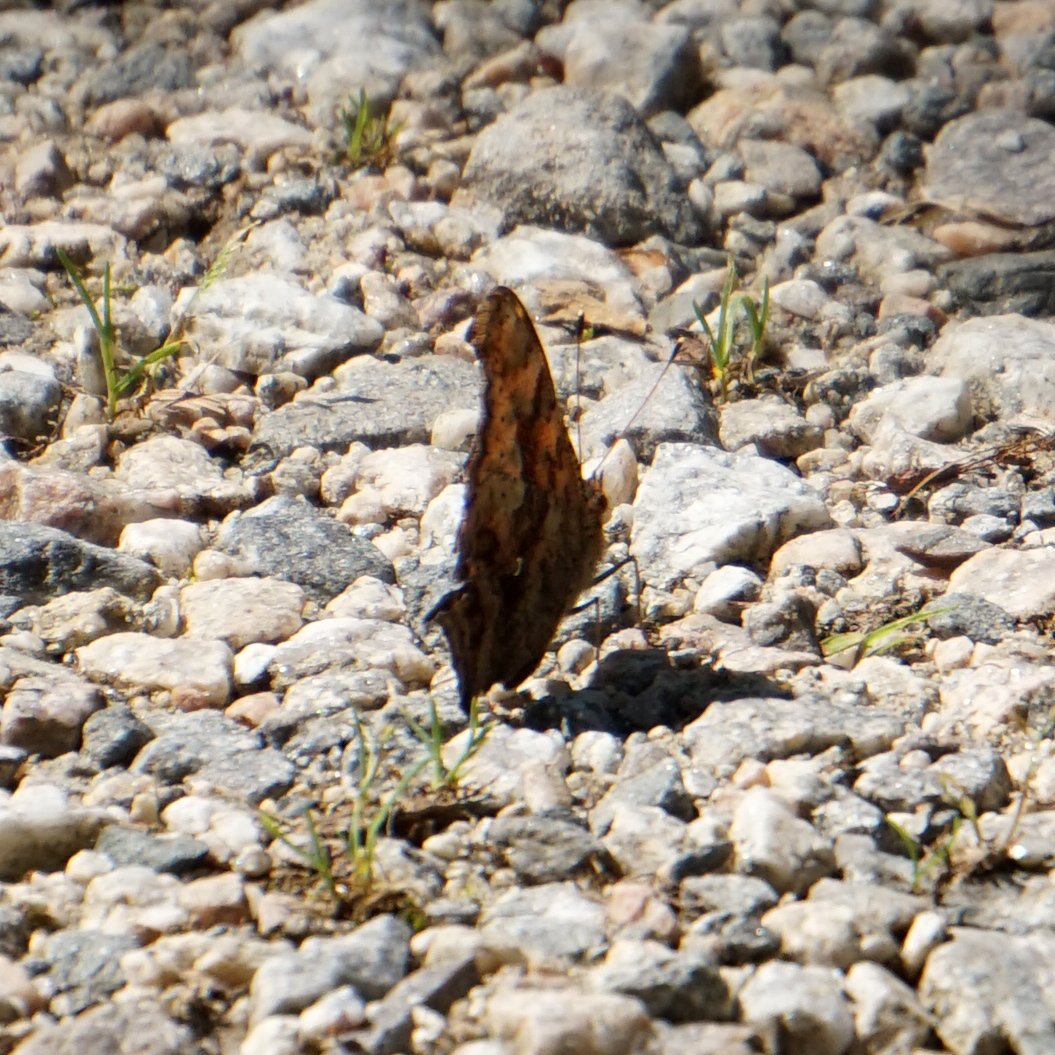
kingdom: Animalia
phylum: Arthropoda
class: Insecta
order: Lepidoptera
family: Nymphalidae
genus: Polygonia
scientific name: Polygonia comma
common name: Eastern comma
